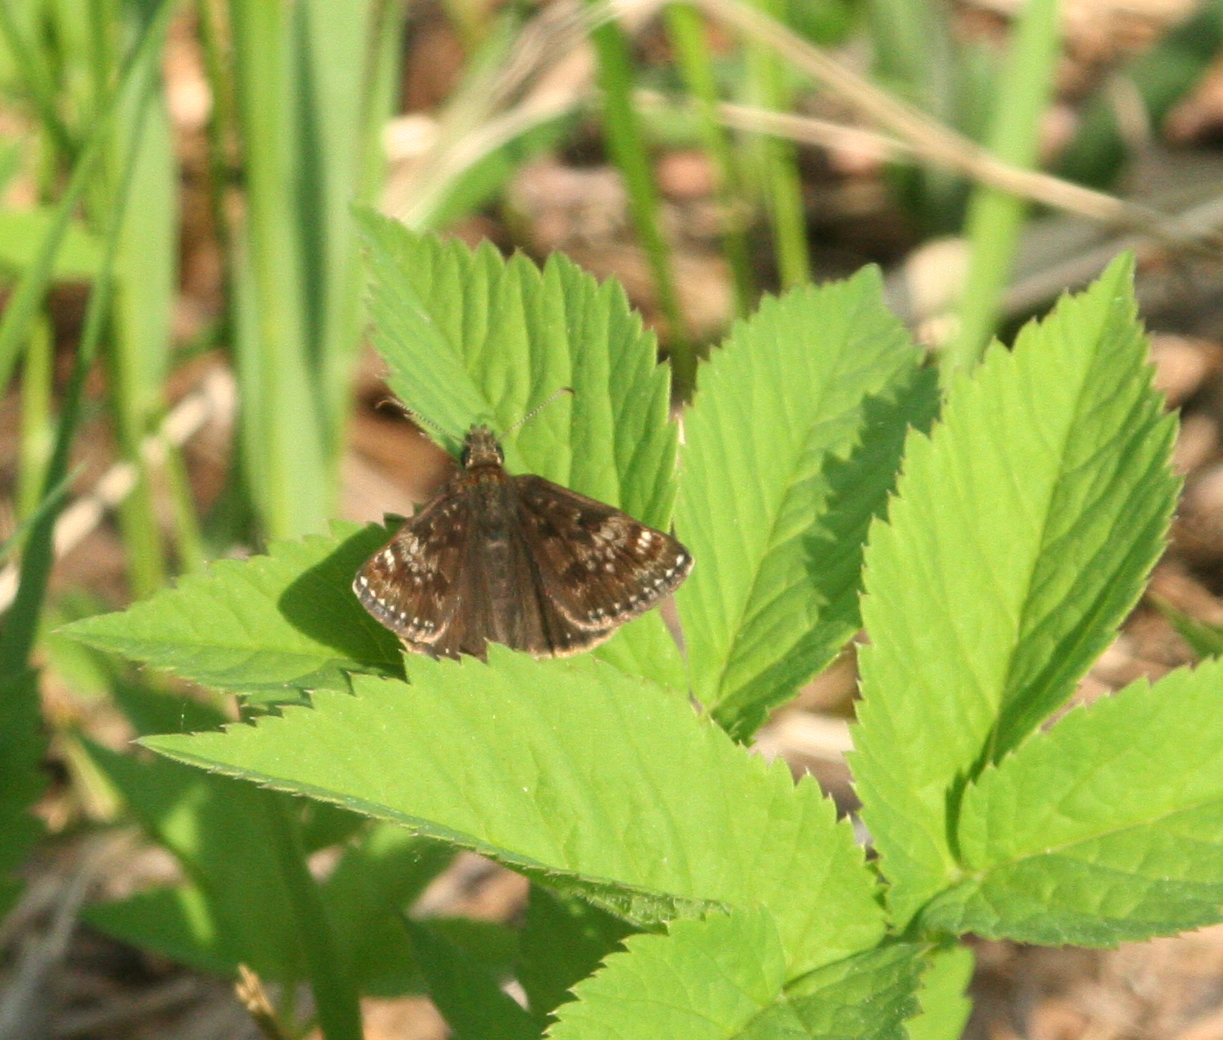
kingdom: Animalia
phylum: Arthropoda
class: Insecta
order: Lepidoptera
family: Hesperiidae
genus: Erynnis
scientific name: Erynnis tages
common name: Dingy skipper
